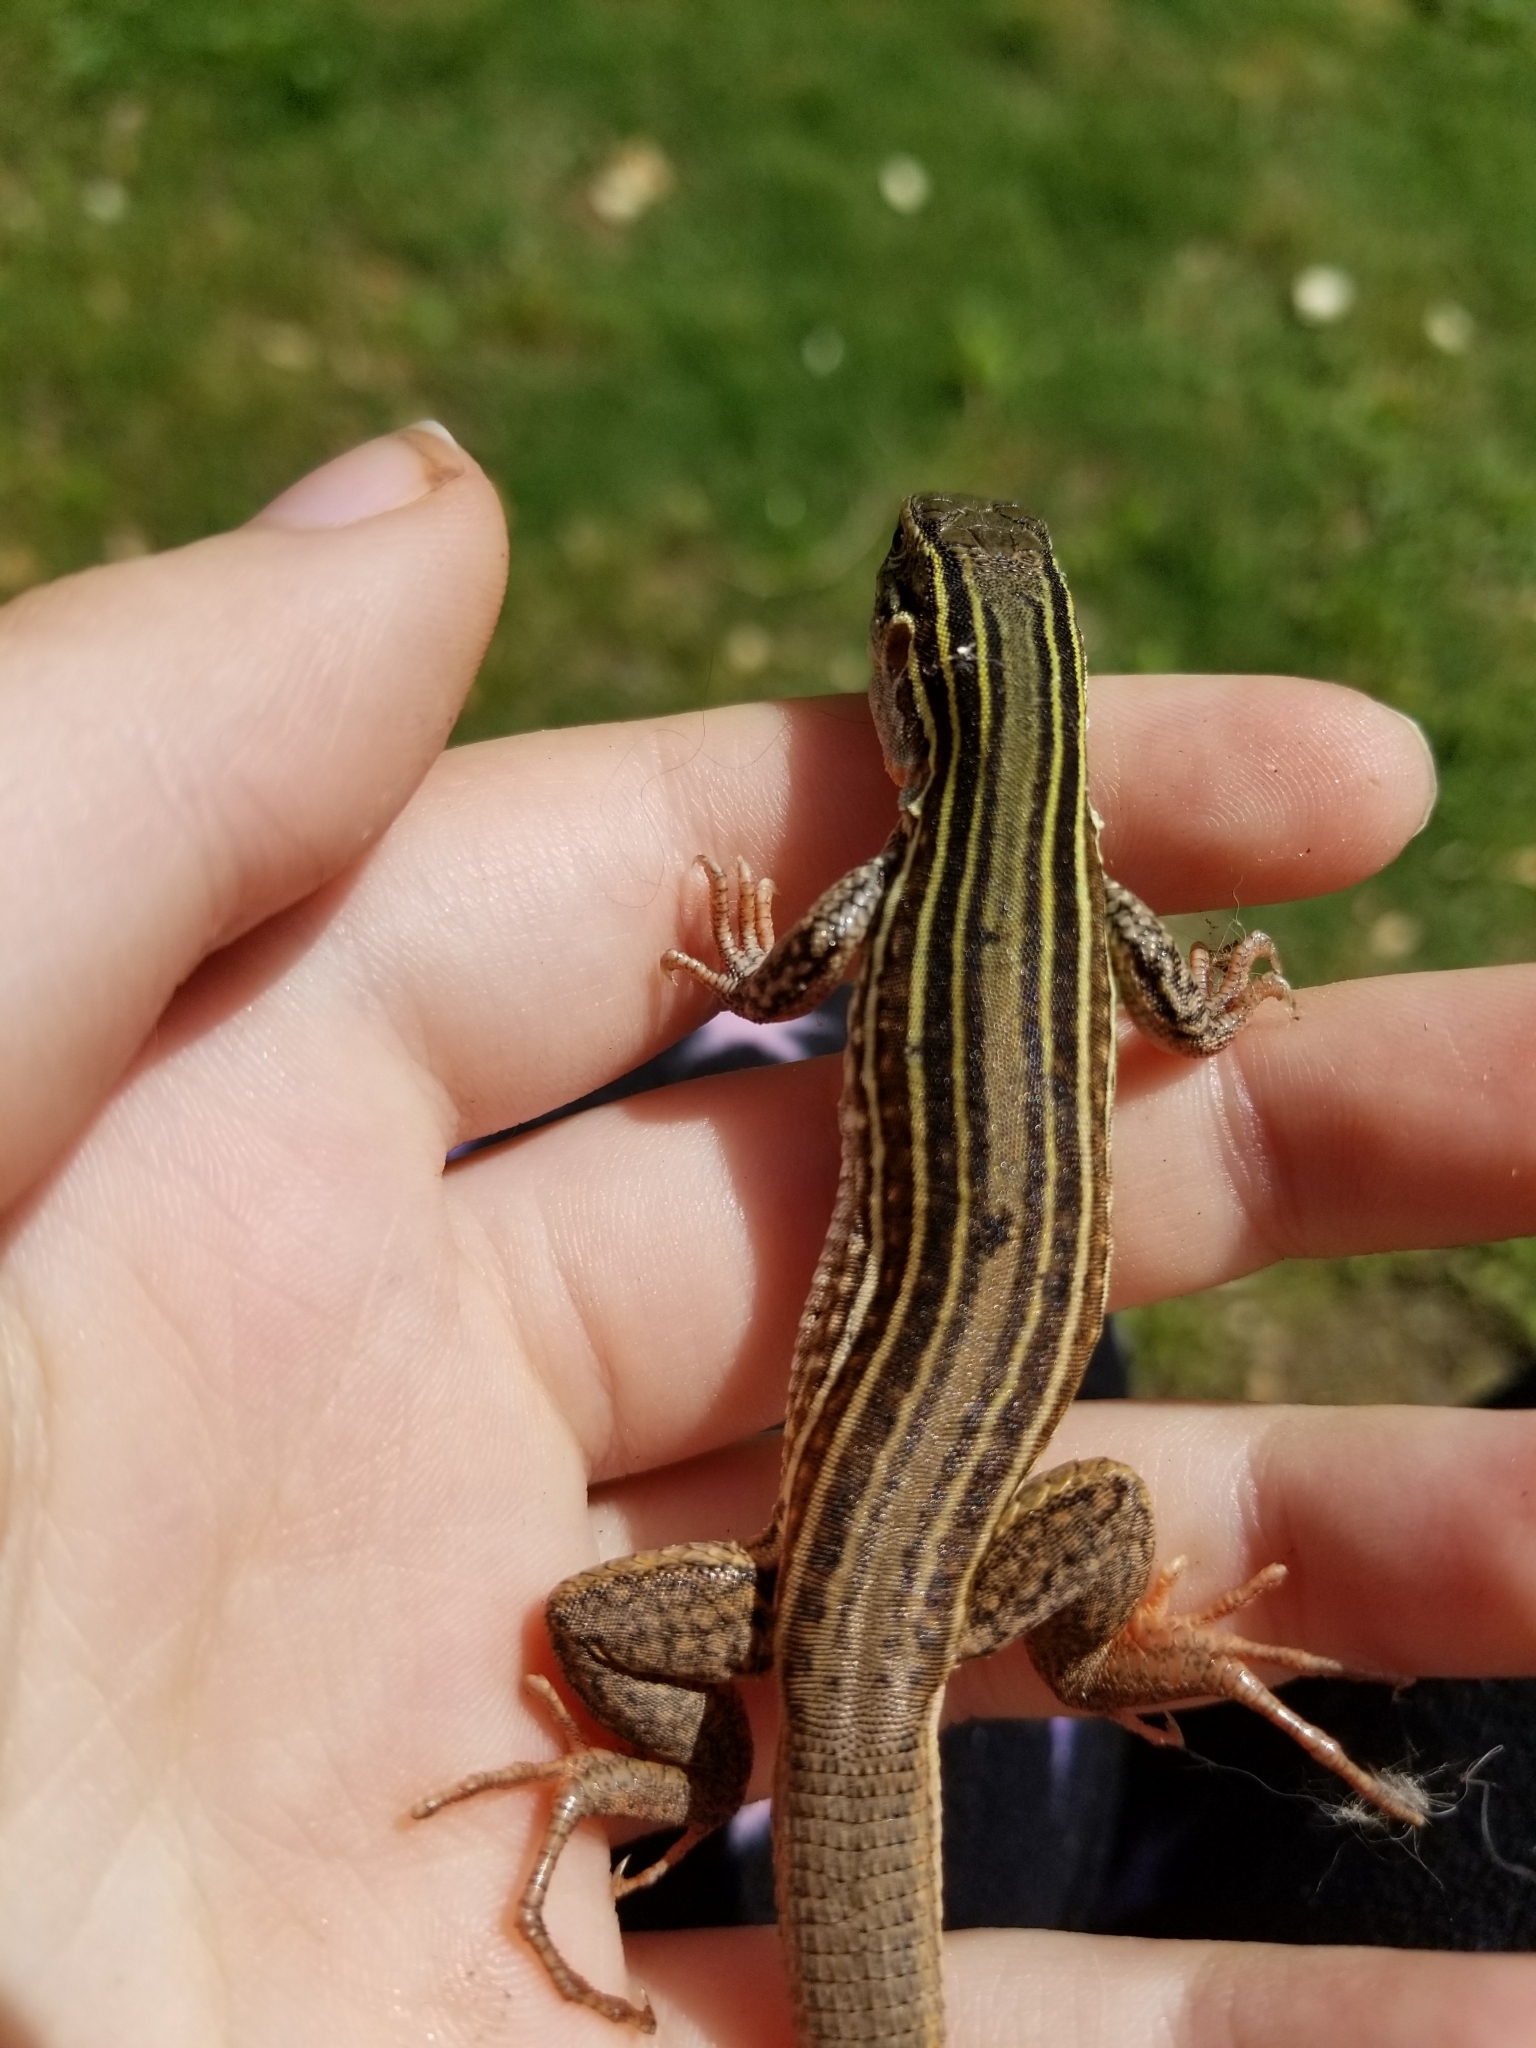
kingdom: Animalia
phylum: Chordata
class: Squamata
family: Teiidae
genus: Aspidoscelis
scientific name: Aspidoscelis gularis
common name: Eastern spotted whiptail
